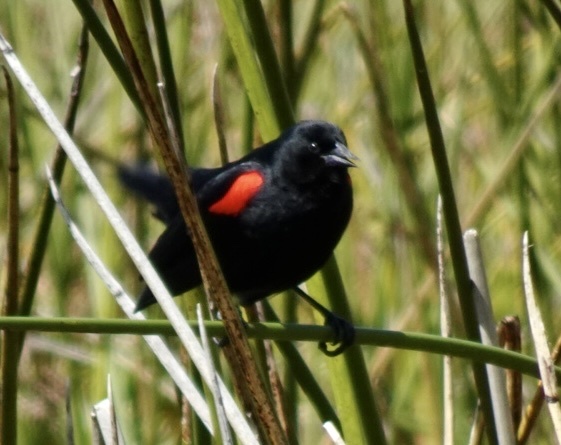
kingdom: Animalia
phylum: Chordata
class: Aves
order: Passeriformes
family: Icteridae
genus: Agelaius
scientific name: Agelaius phoeniceus
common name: Red-winged blackbird
